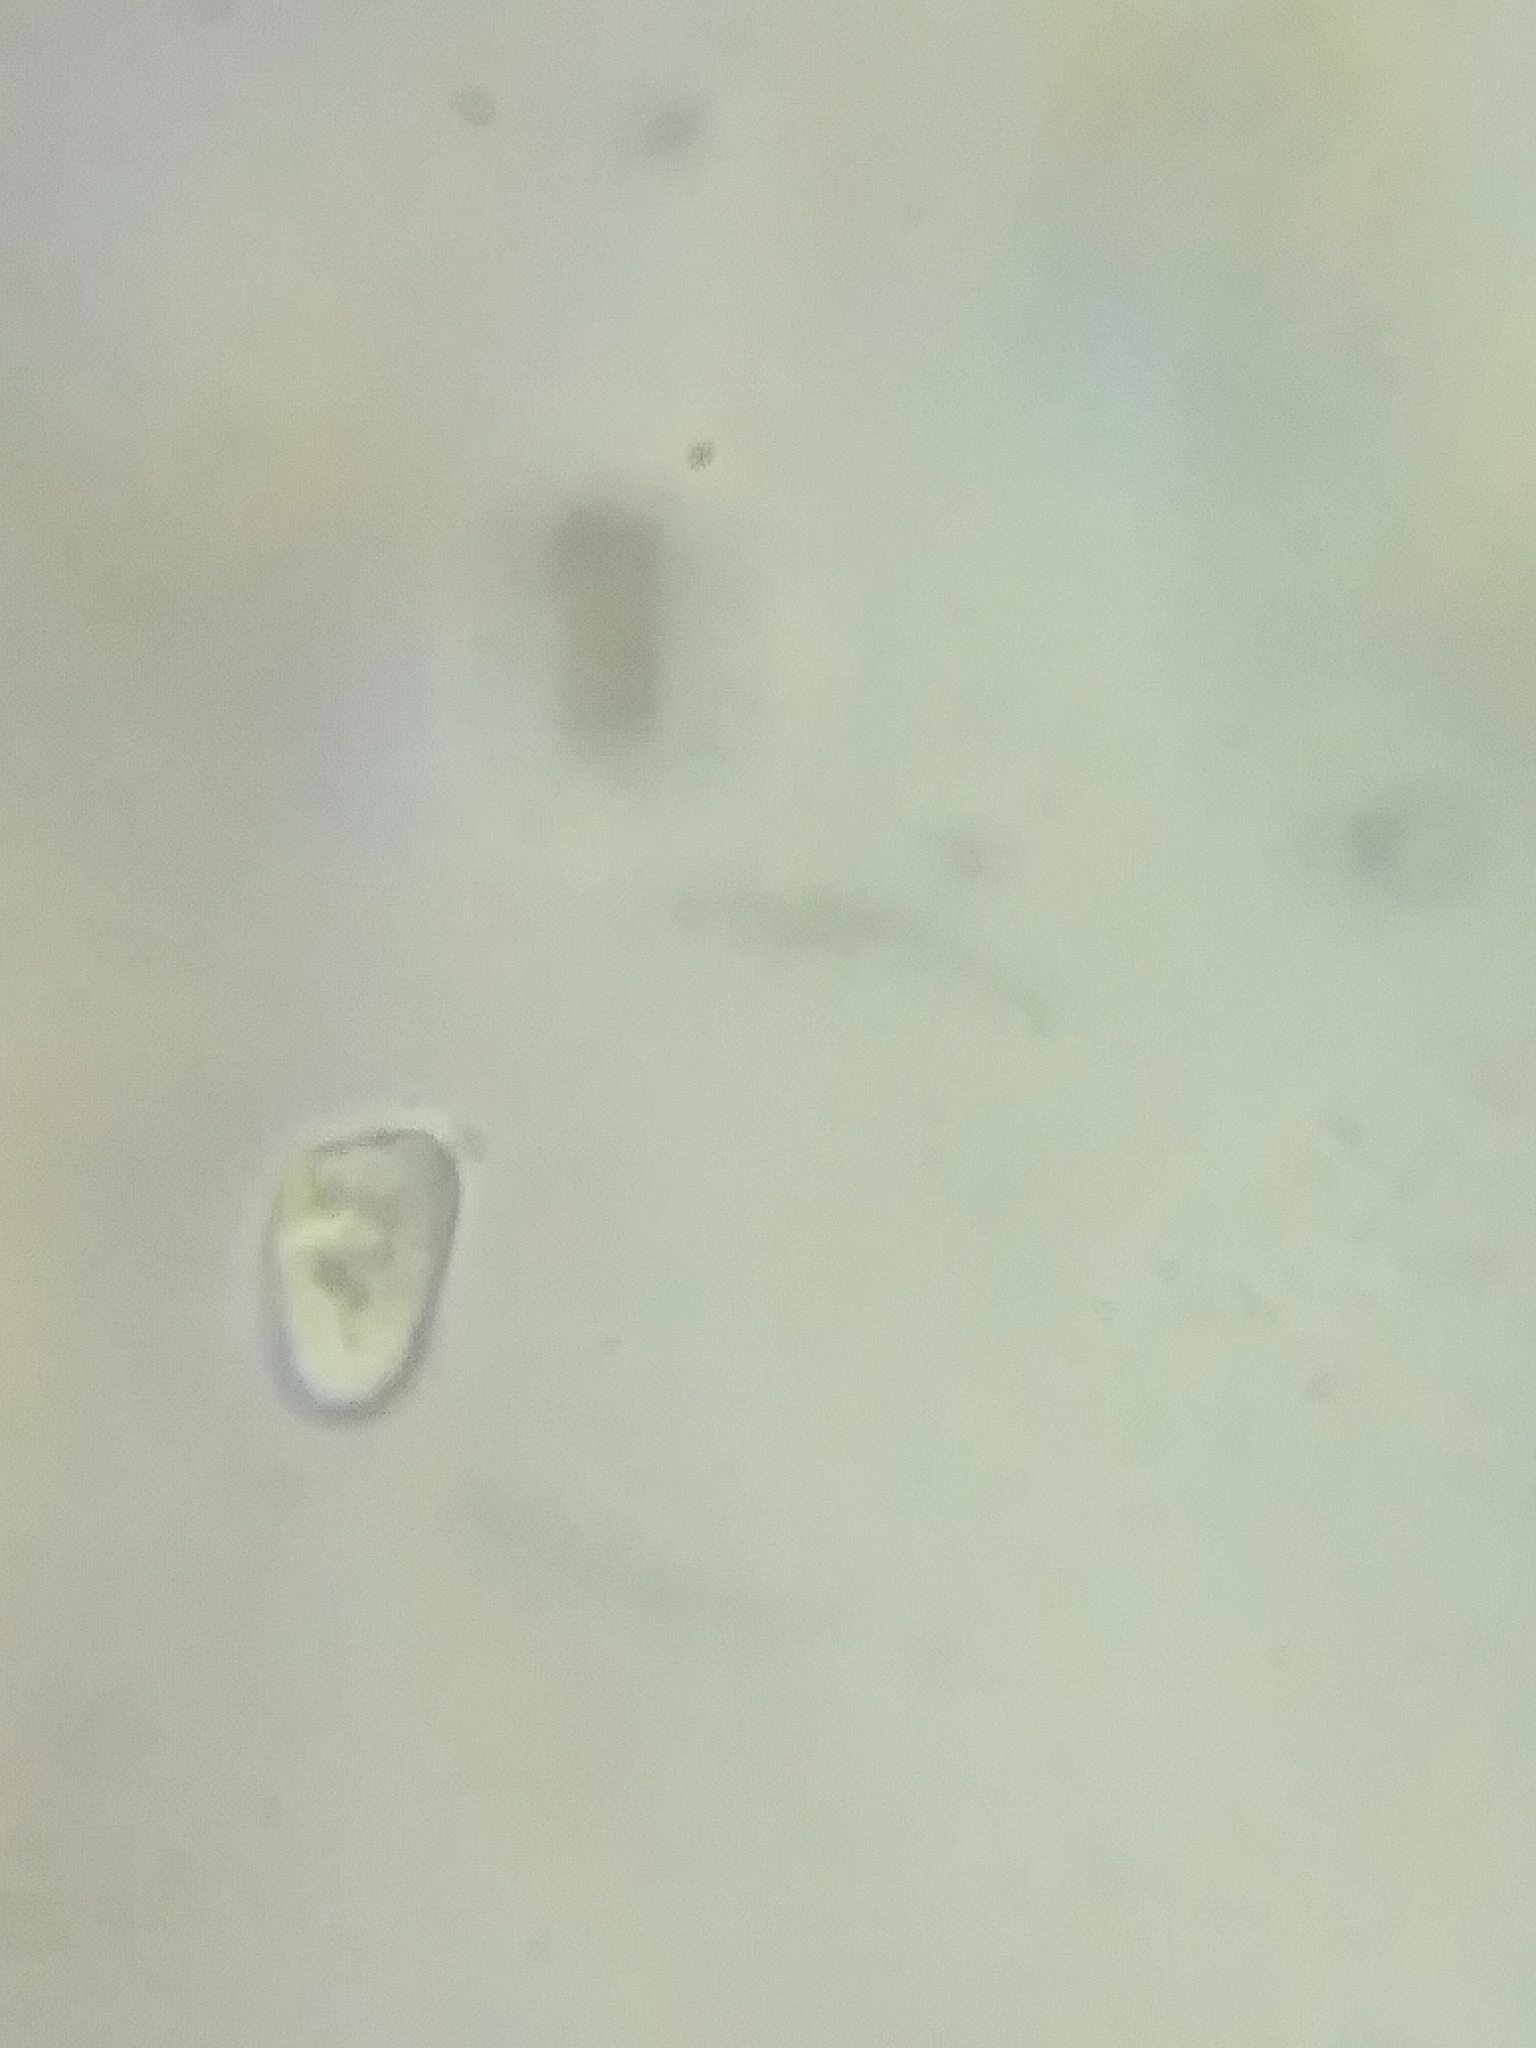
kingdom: Fungi
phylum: Basidiomycota
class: Agaricomycetes
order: Agaricales
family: Hygrophoraceae
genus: Hygrocybe
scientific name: Hygrocybe acutoconica
